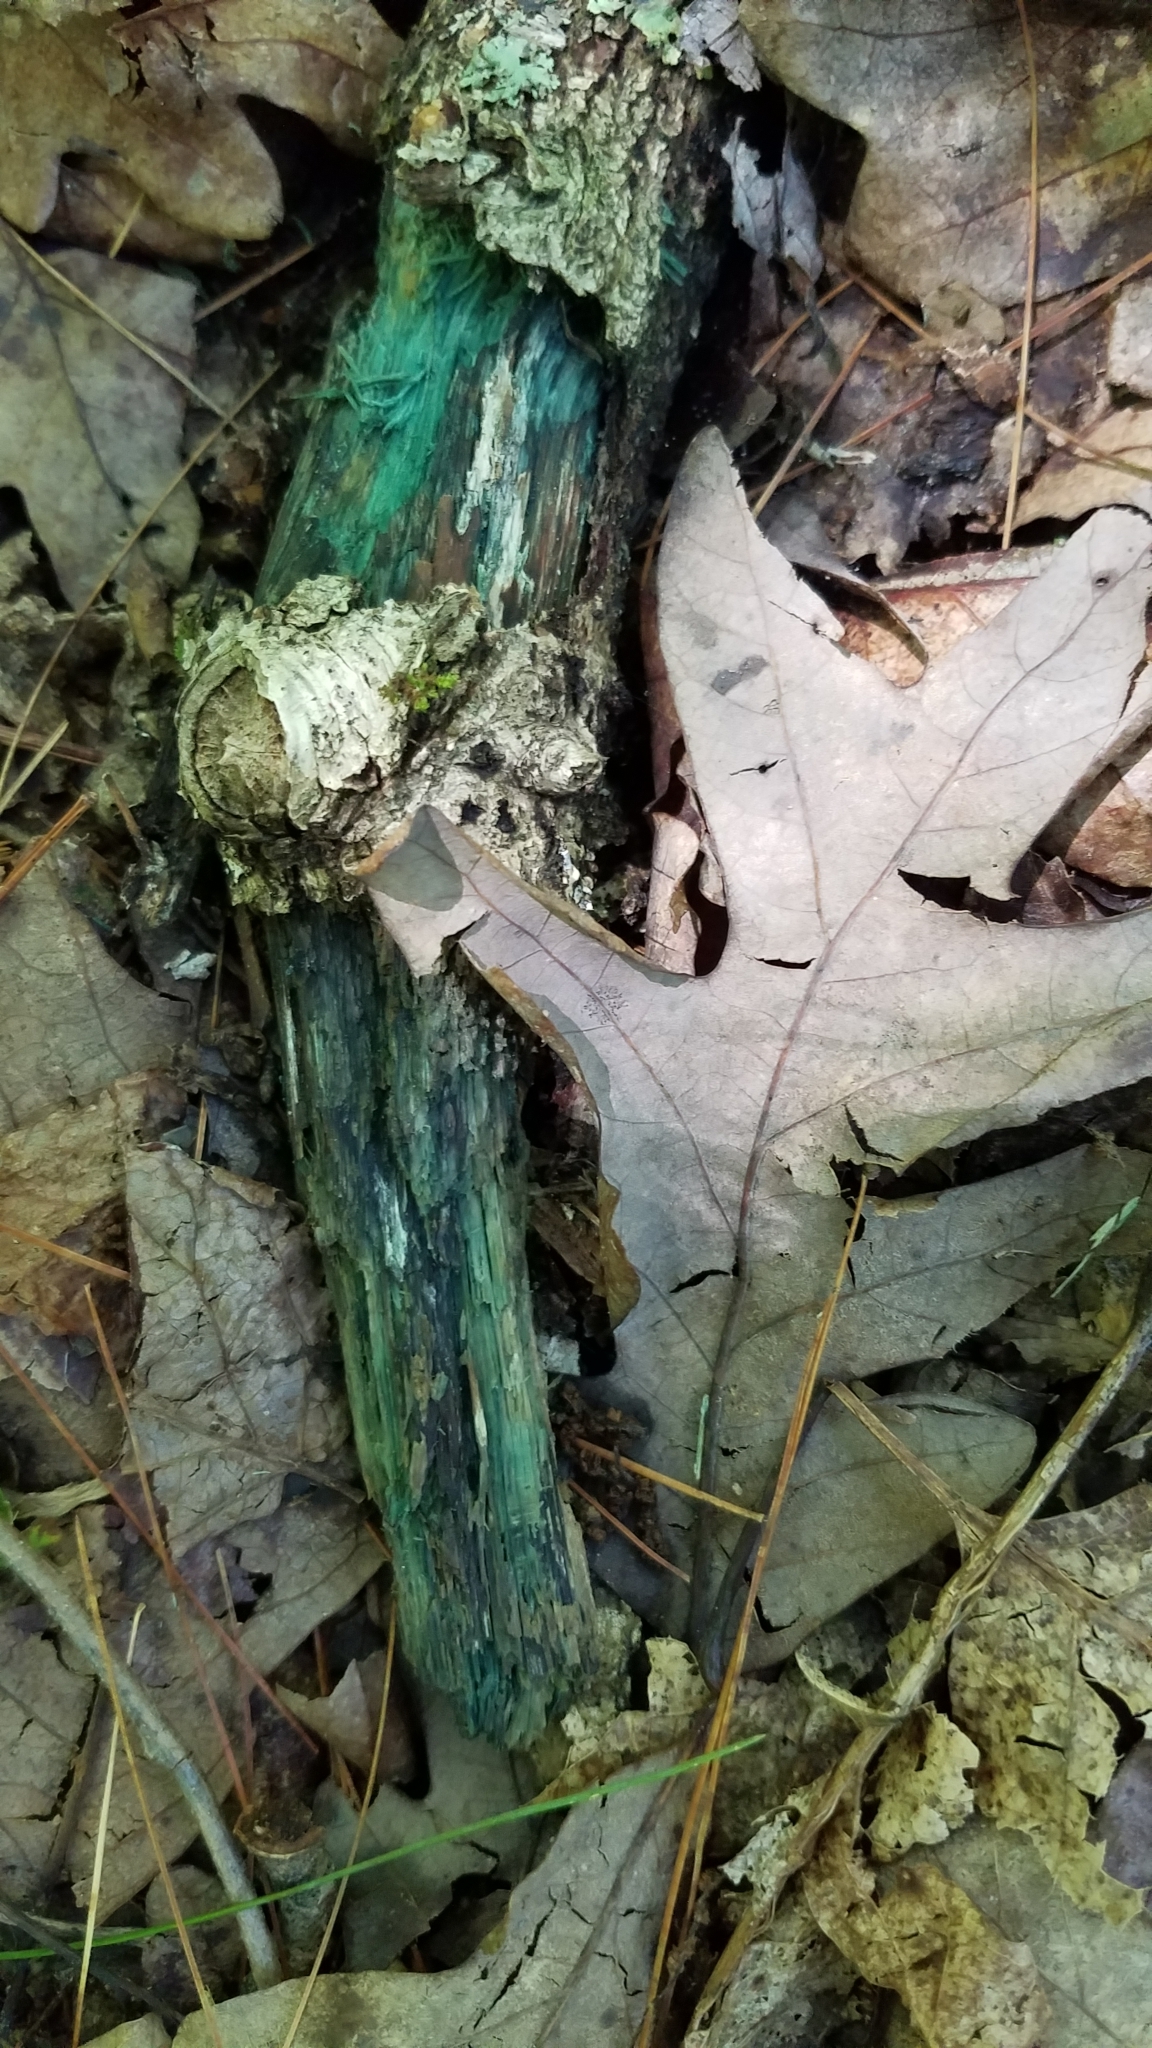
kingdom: Fungi
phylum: Ascomycota
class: Leotiomycetes
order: Helotiales
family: Chlorociboriaceae
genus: Chlorociboria
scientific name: Chlorociboria
